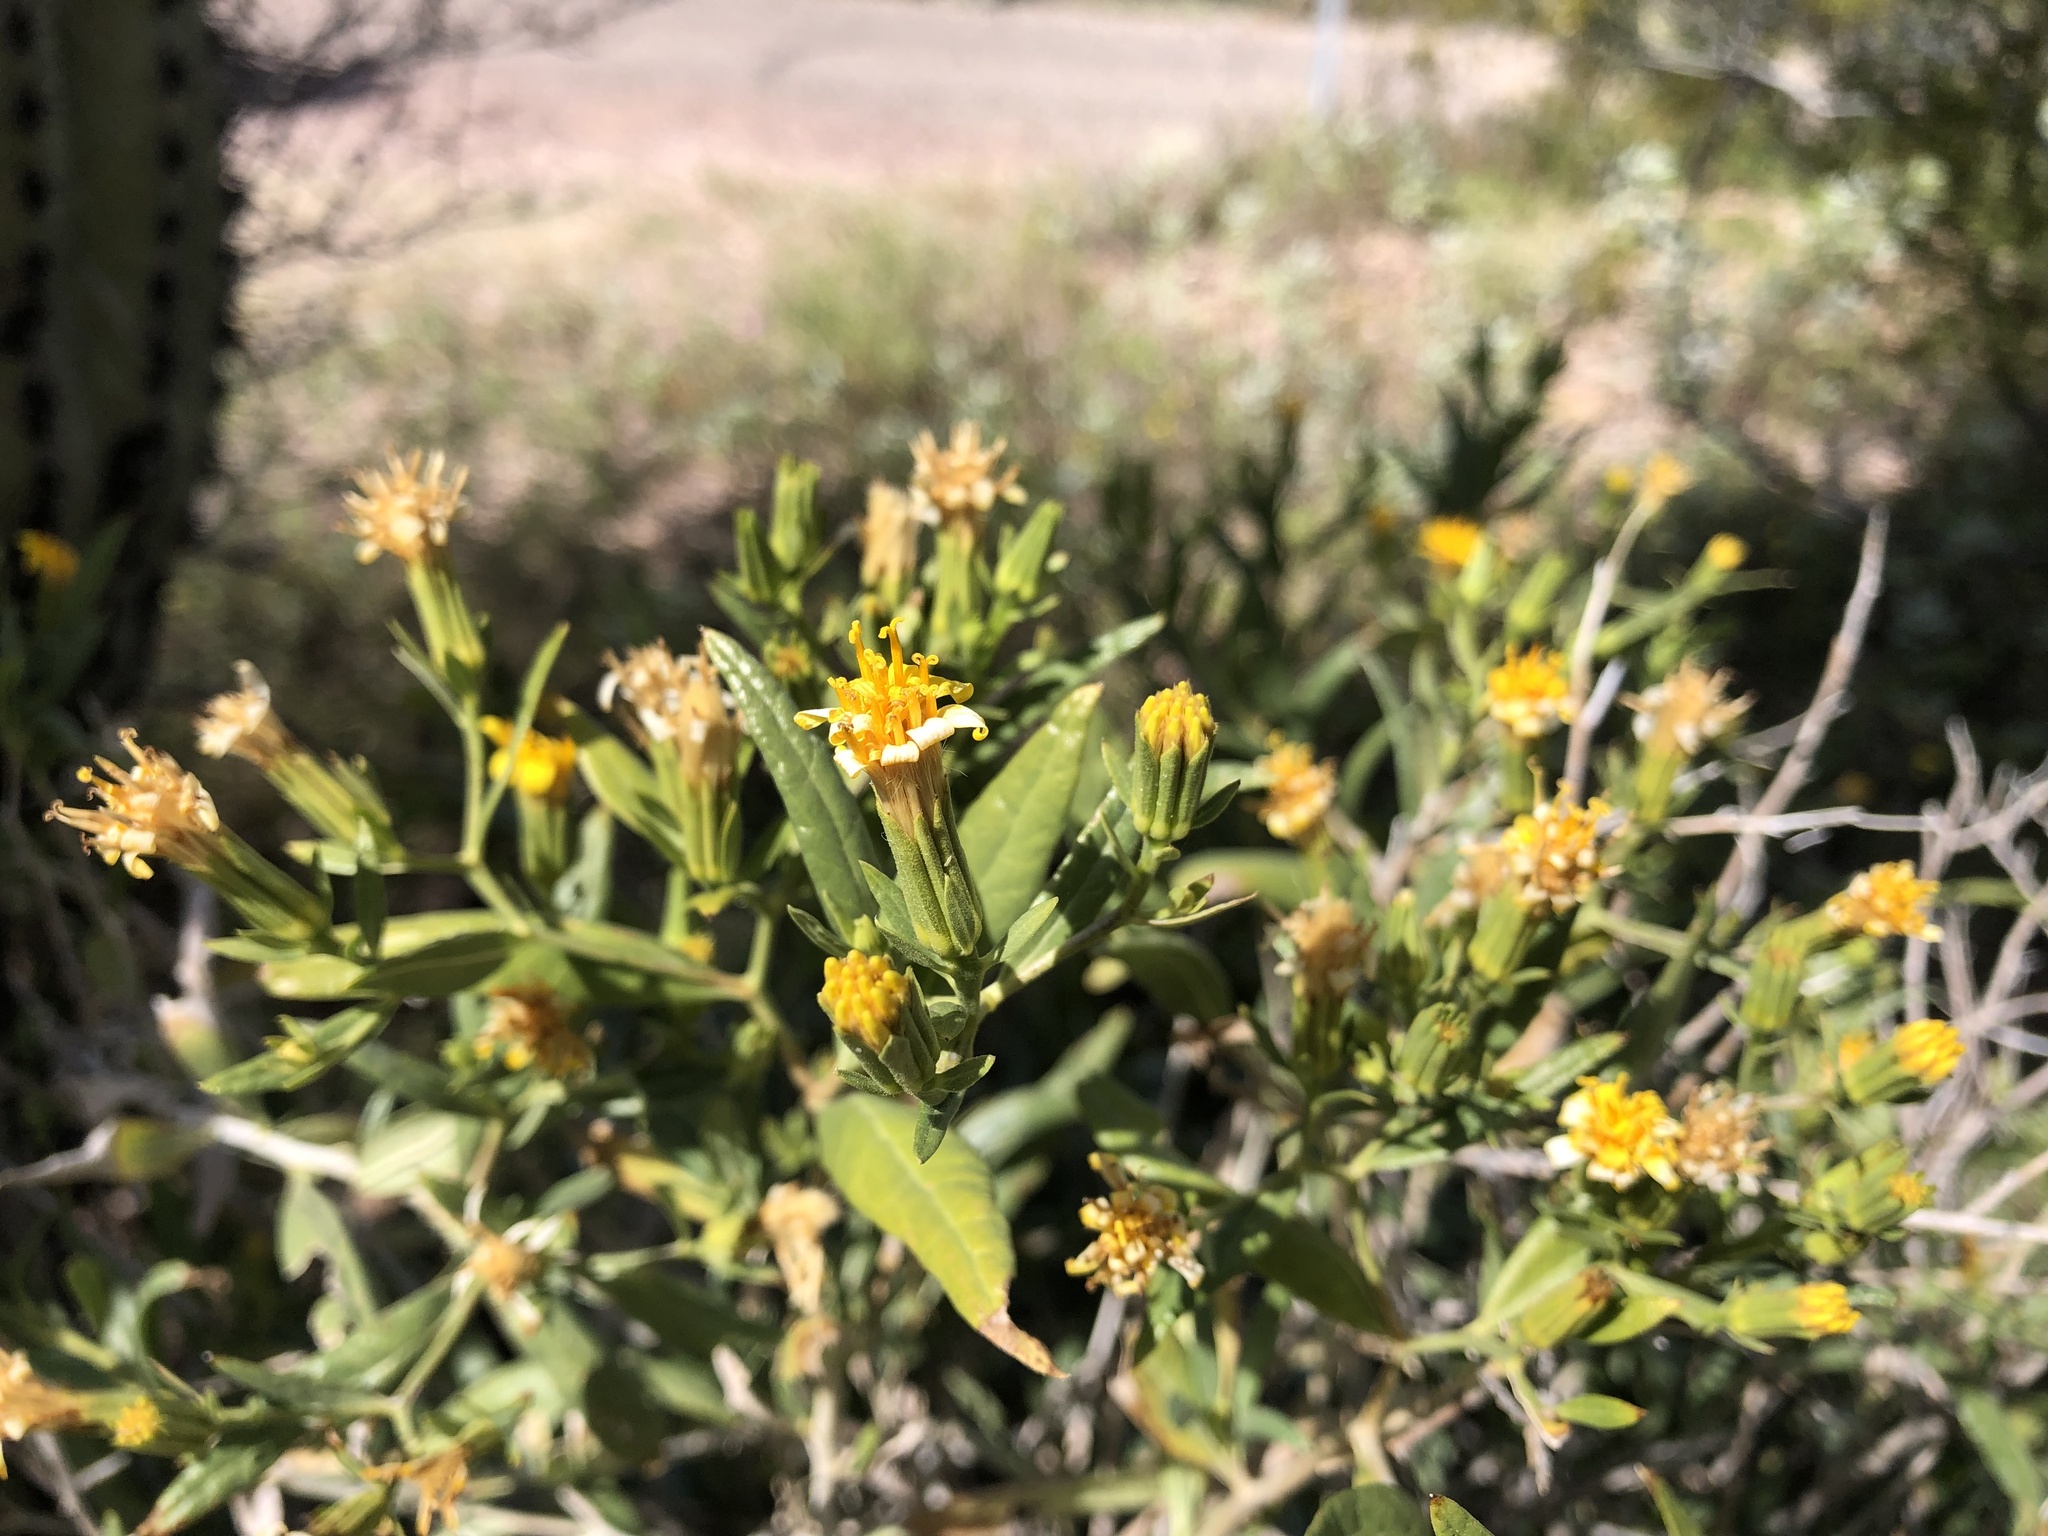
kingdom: Plantae
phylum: Tracheophyta
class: Magnoliopsida
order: Asterales
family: Asteraceae
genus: Trixis
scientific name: Trixis californica
